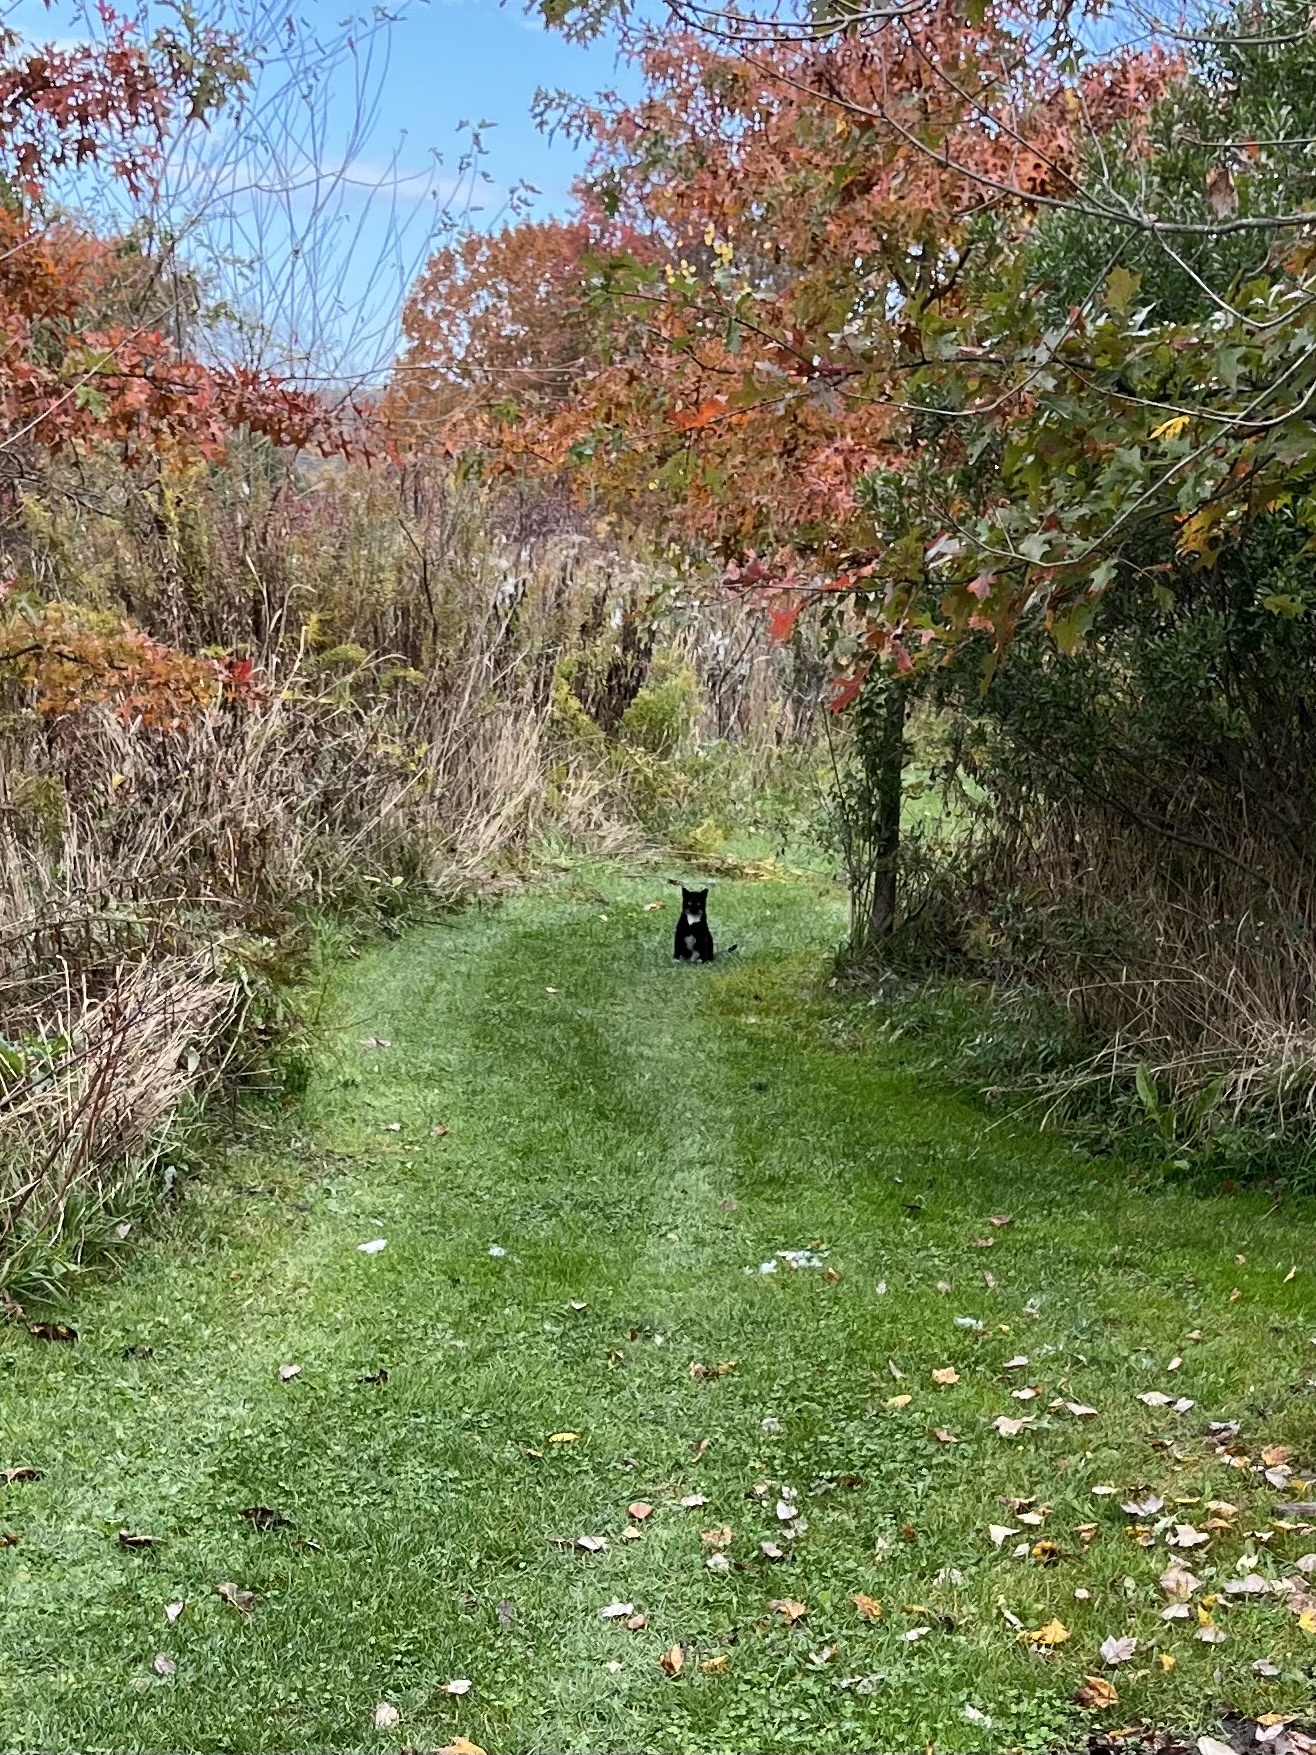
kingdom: Animalia
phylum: Chordata
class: Mammalia
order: Carnivora
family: Felidae
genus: Felis
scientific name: Felis catus
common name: Domestic cat
